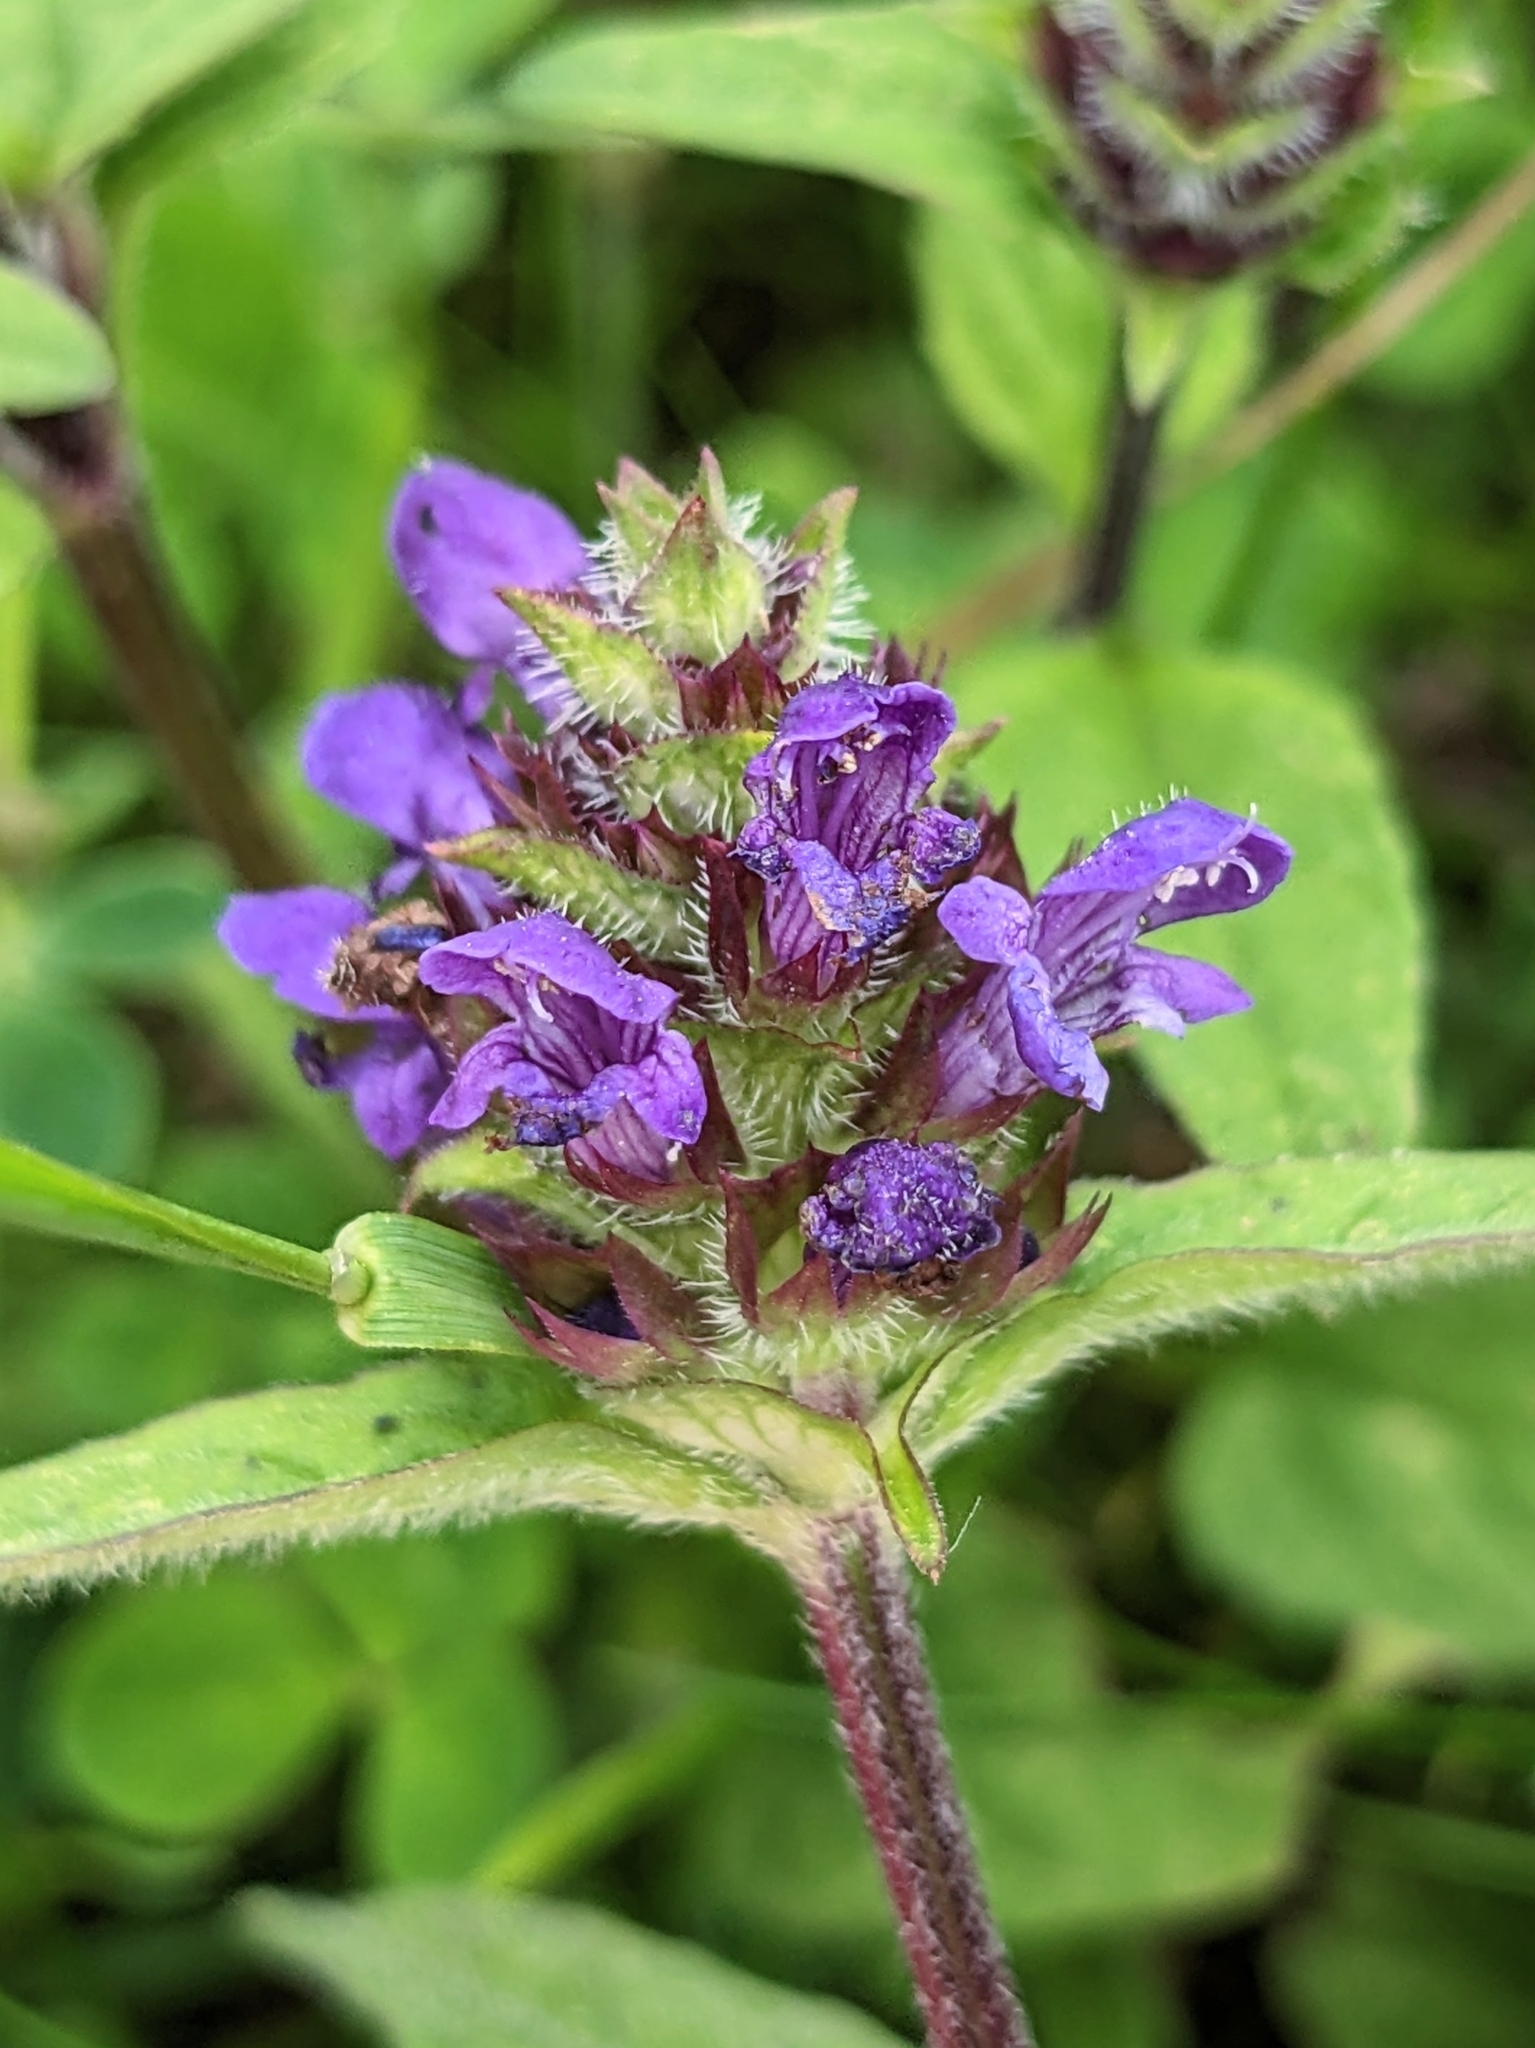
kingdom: Plantae
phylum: Tracheophyta
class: Magnoliopsida
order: Lamiales
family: Lamiaceae
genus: Prunella
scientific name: Prunella vulgaris
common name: Heal-all
